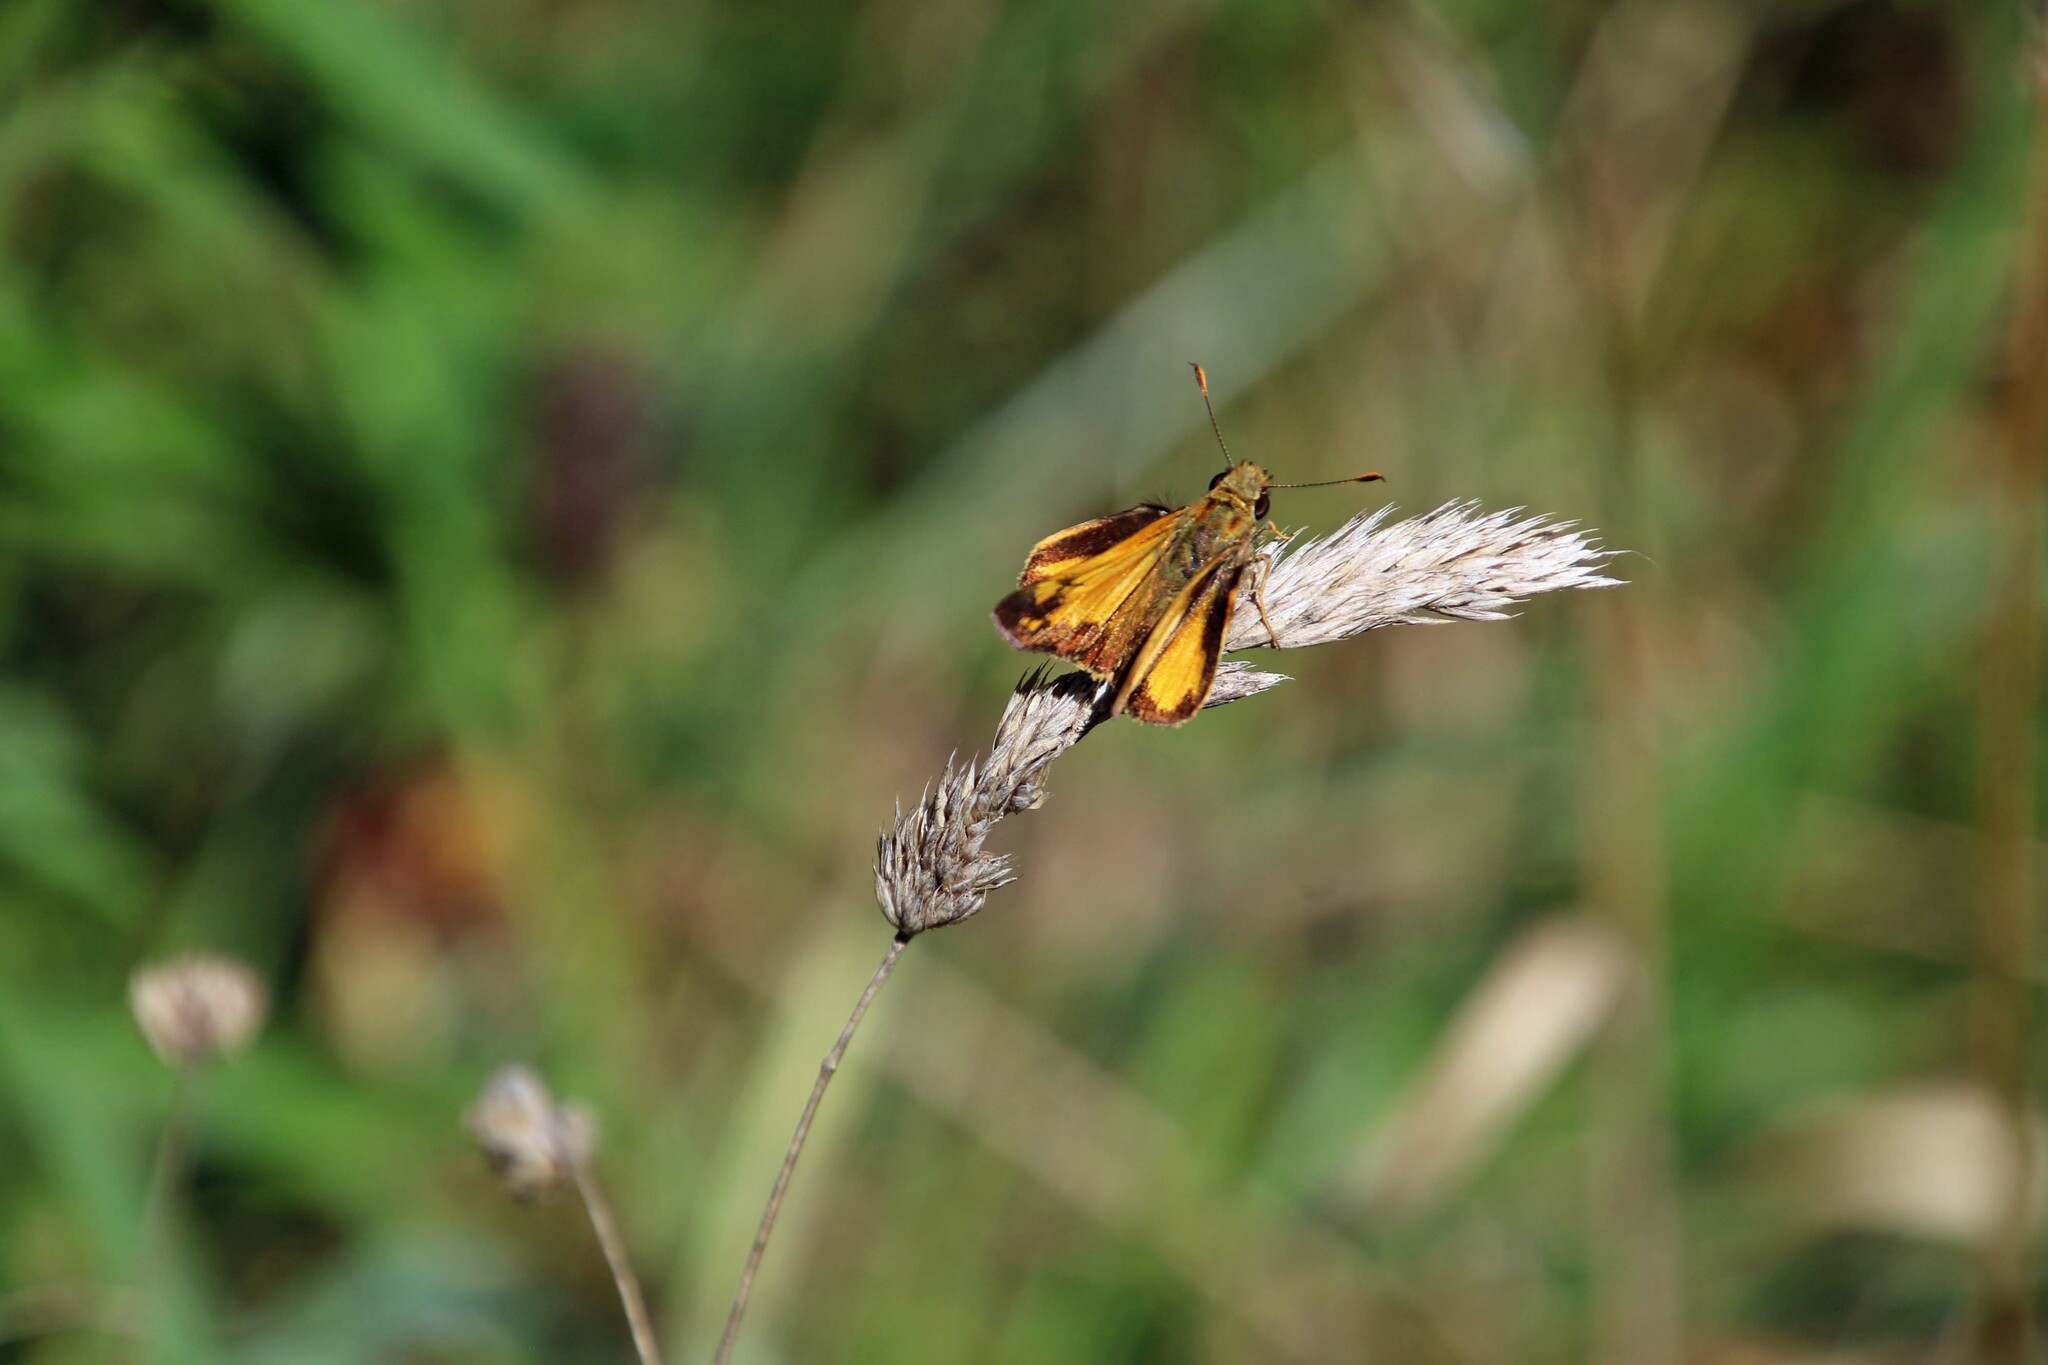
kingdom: Animalia
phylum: Arthropoda
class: Insecta
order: Lepidoptera
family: Hesperiidae
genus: Lon
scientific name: Lon zabulon
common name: Zabulon skipper
